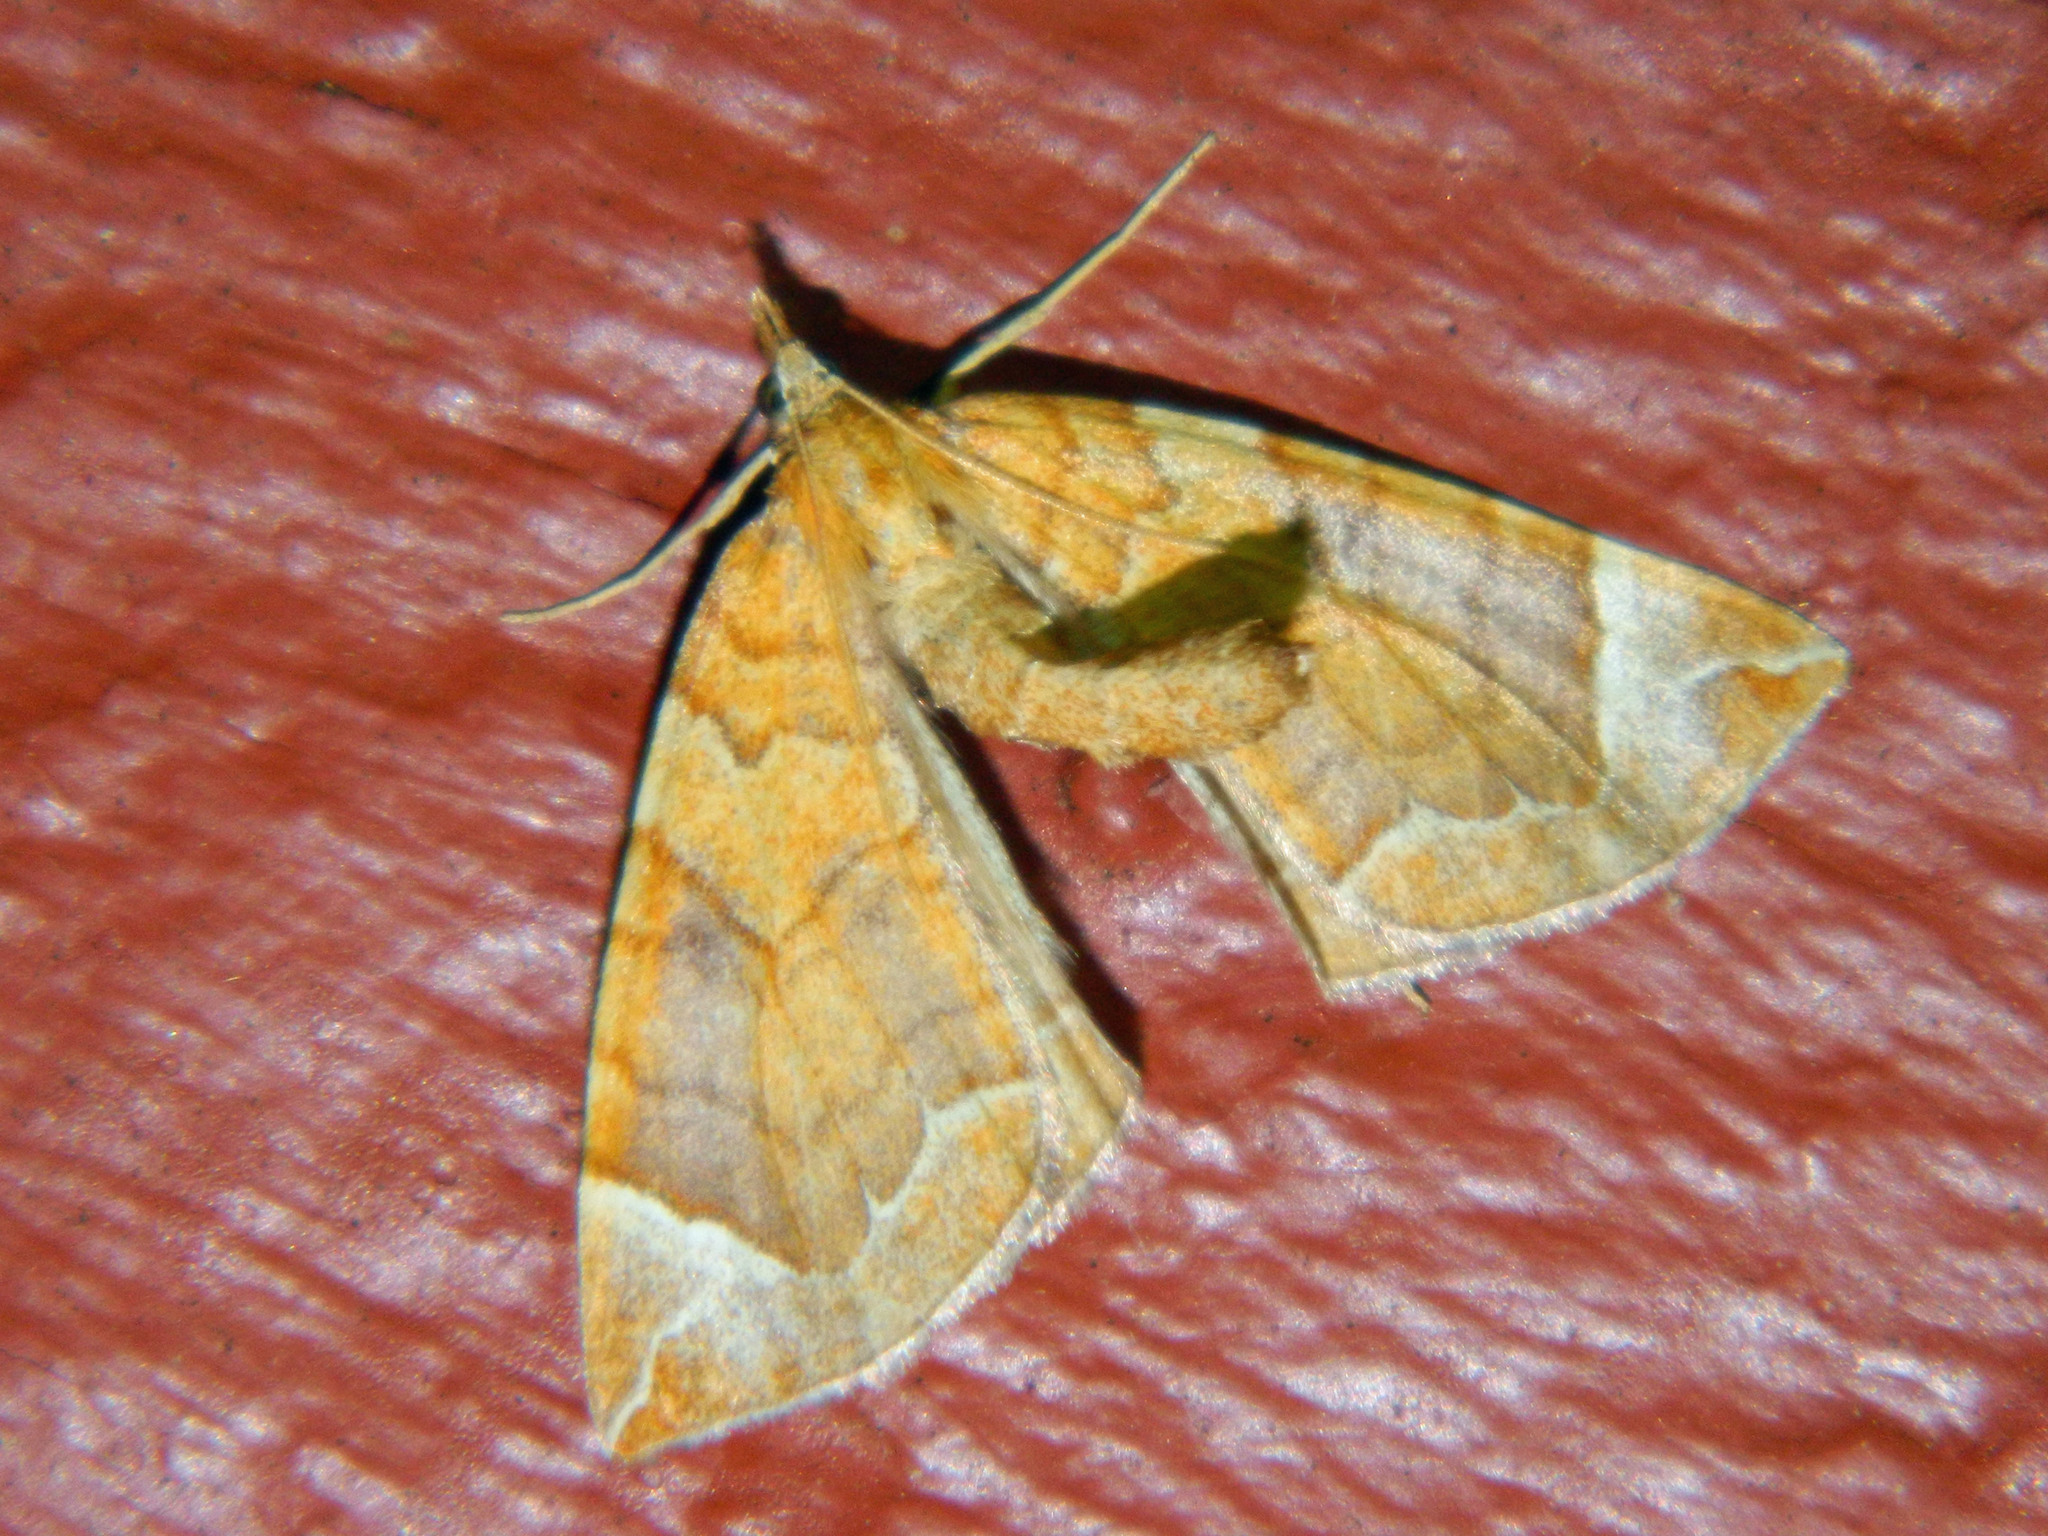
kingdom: Animalia
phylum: Arthropoda
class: Insecta
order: Lepidoptera
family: Geometridae
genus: Eulithis
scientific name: Eulithis testata
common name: Chevron
